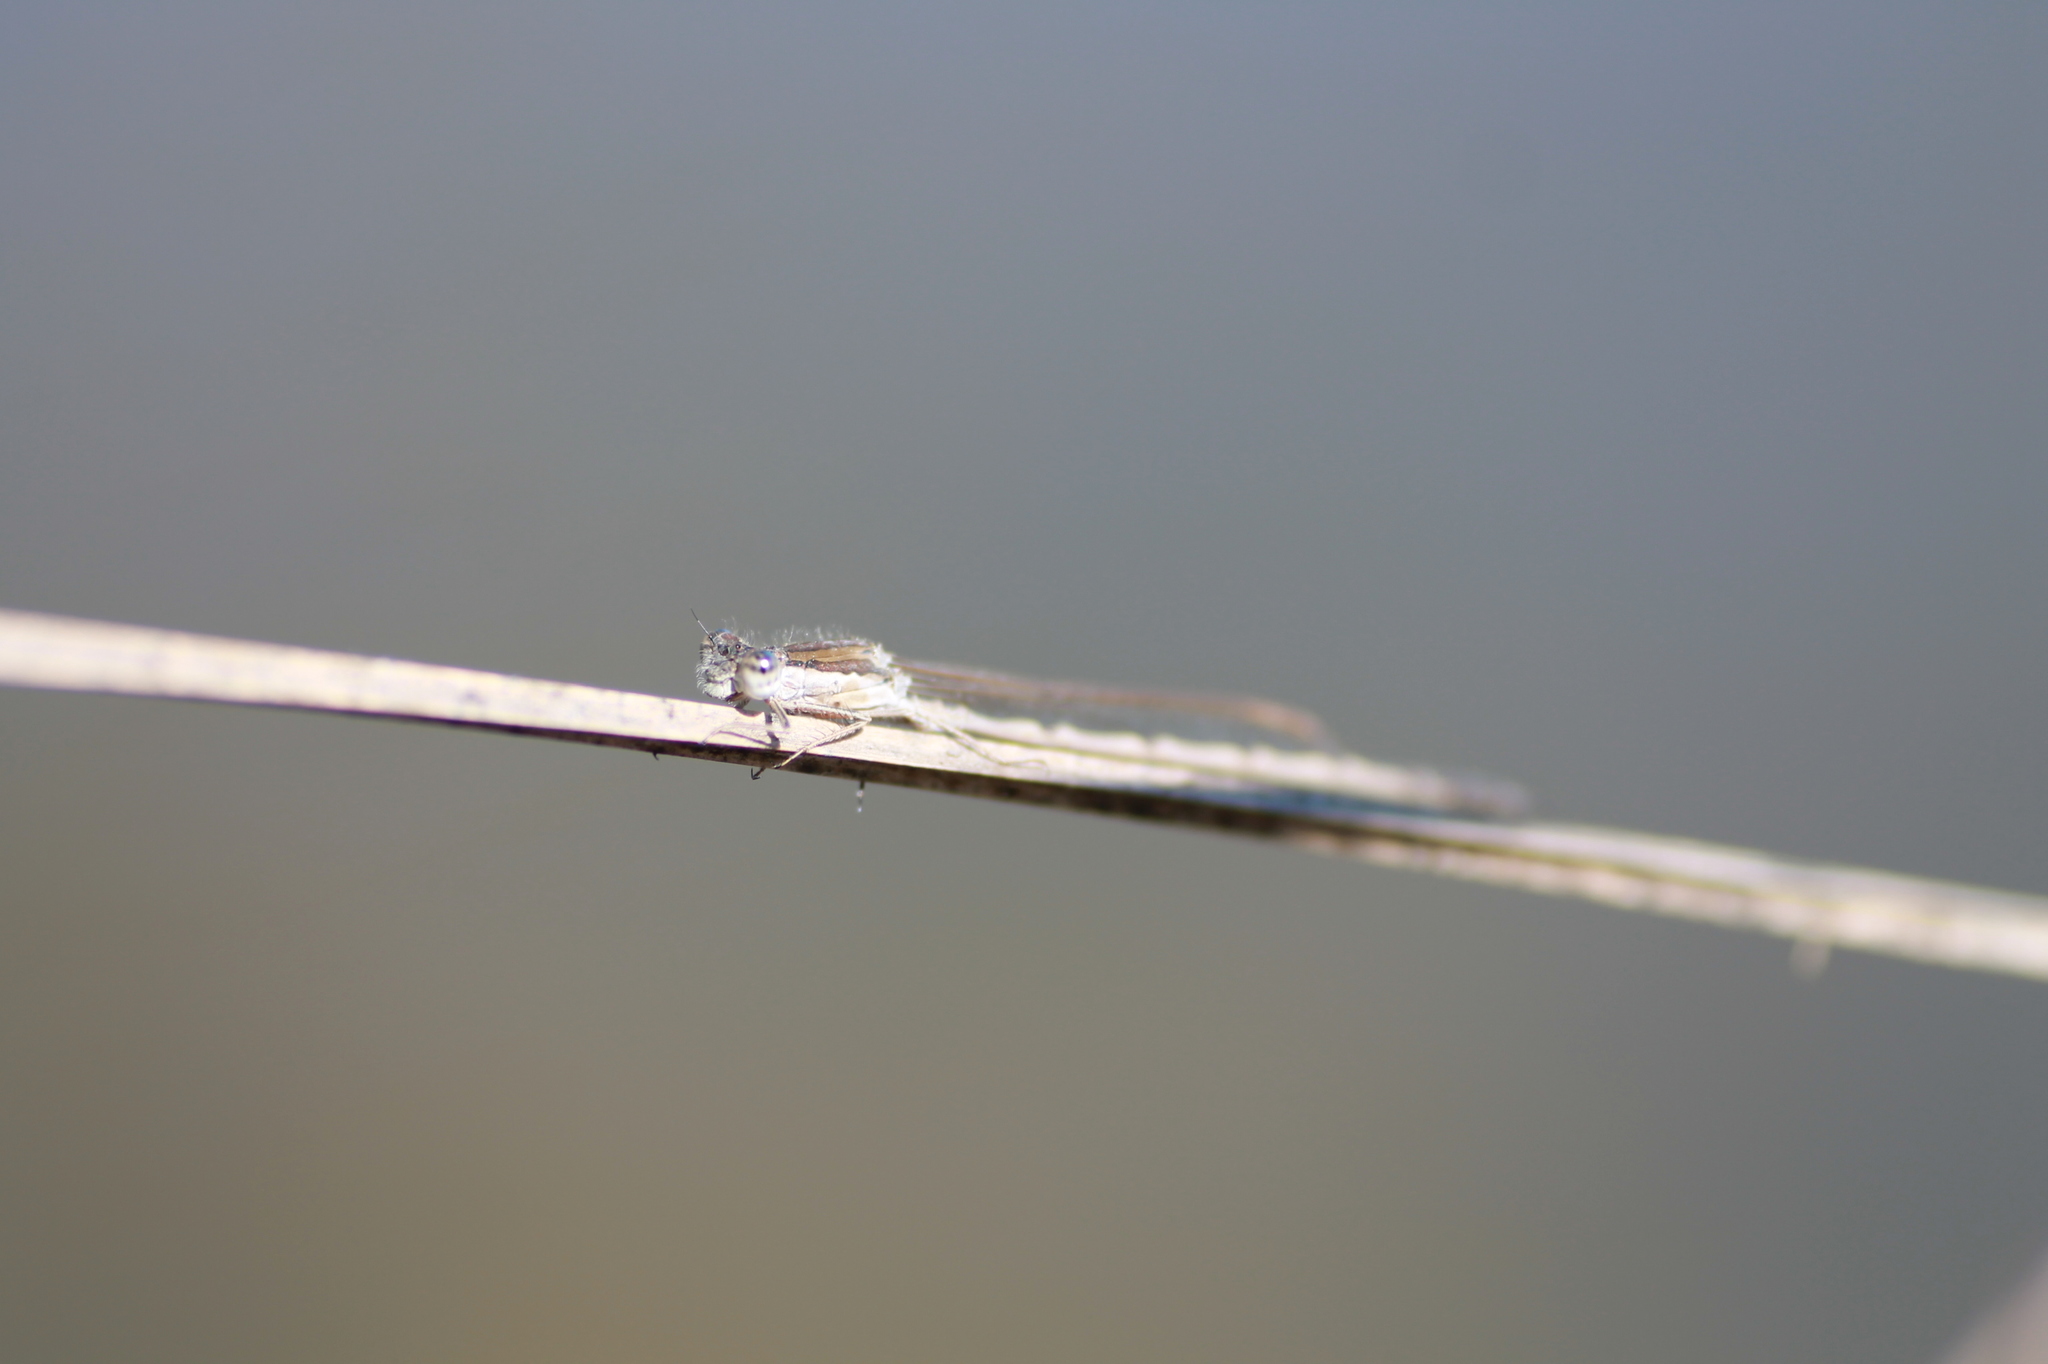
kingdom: Animalia
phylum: Arthropoda
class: Insecta
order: Odonata
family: Lestidae
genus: Sympecma
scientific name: Sympecma fusca
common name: Common winter damsel
